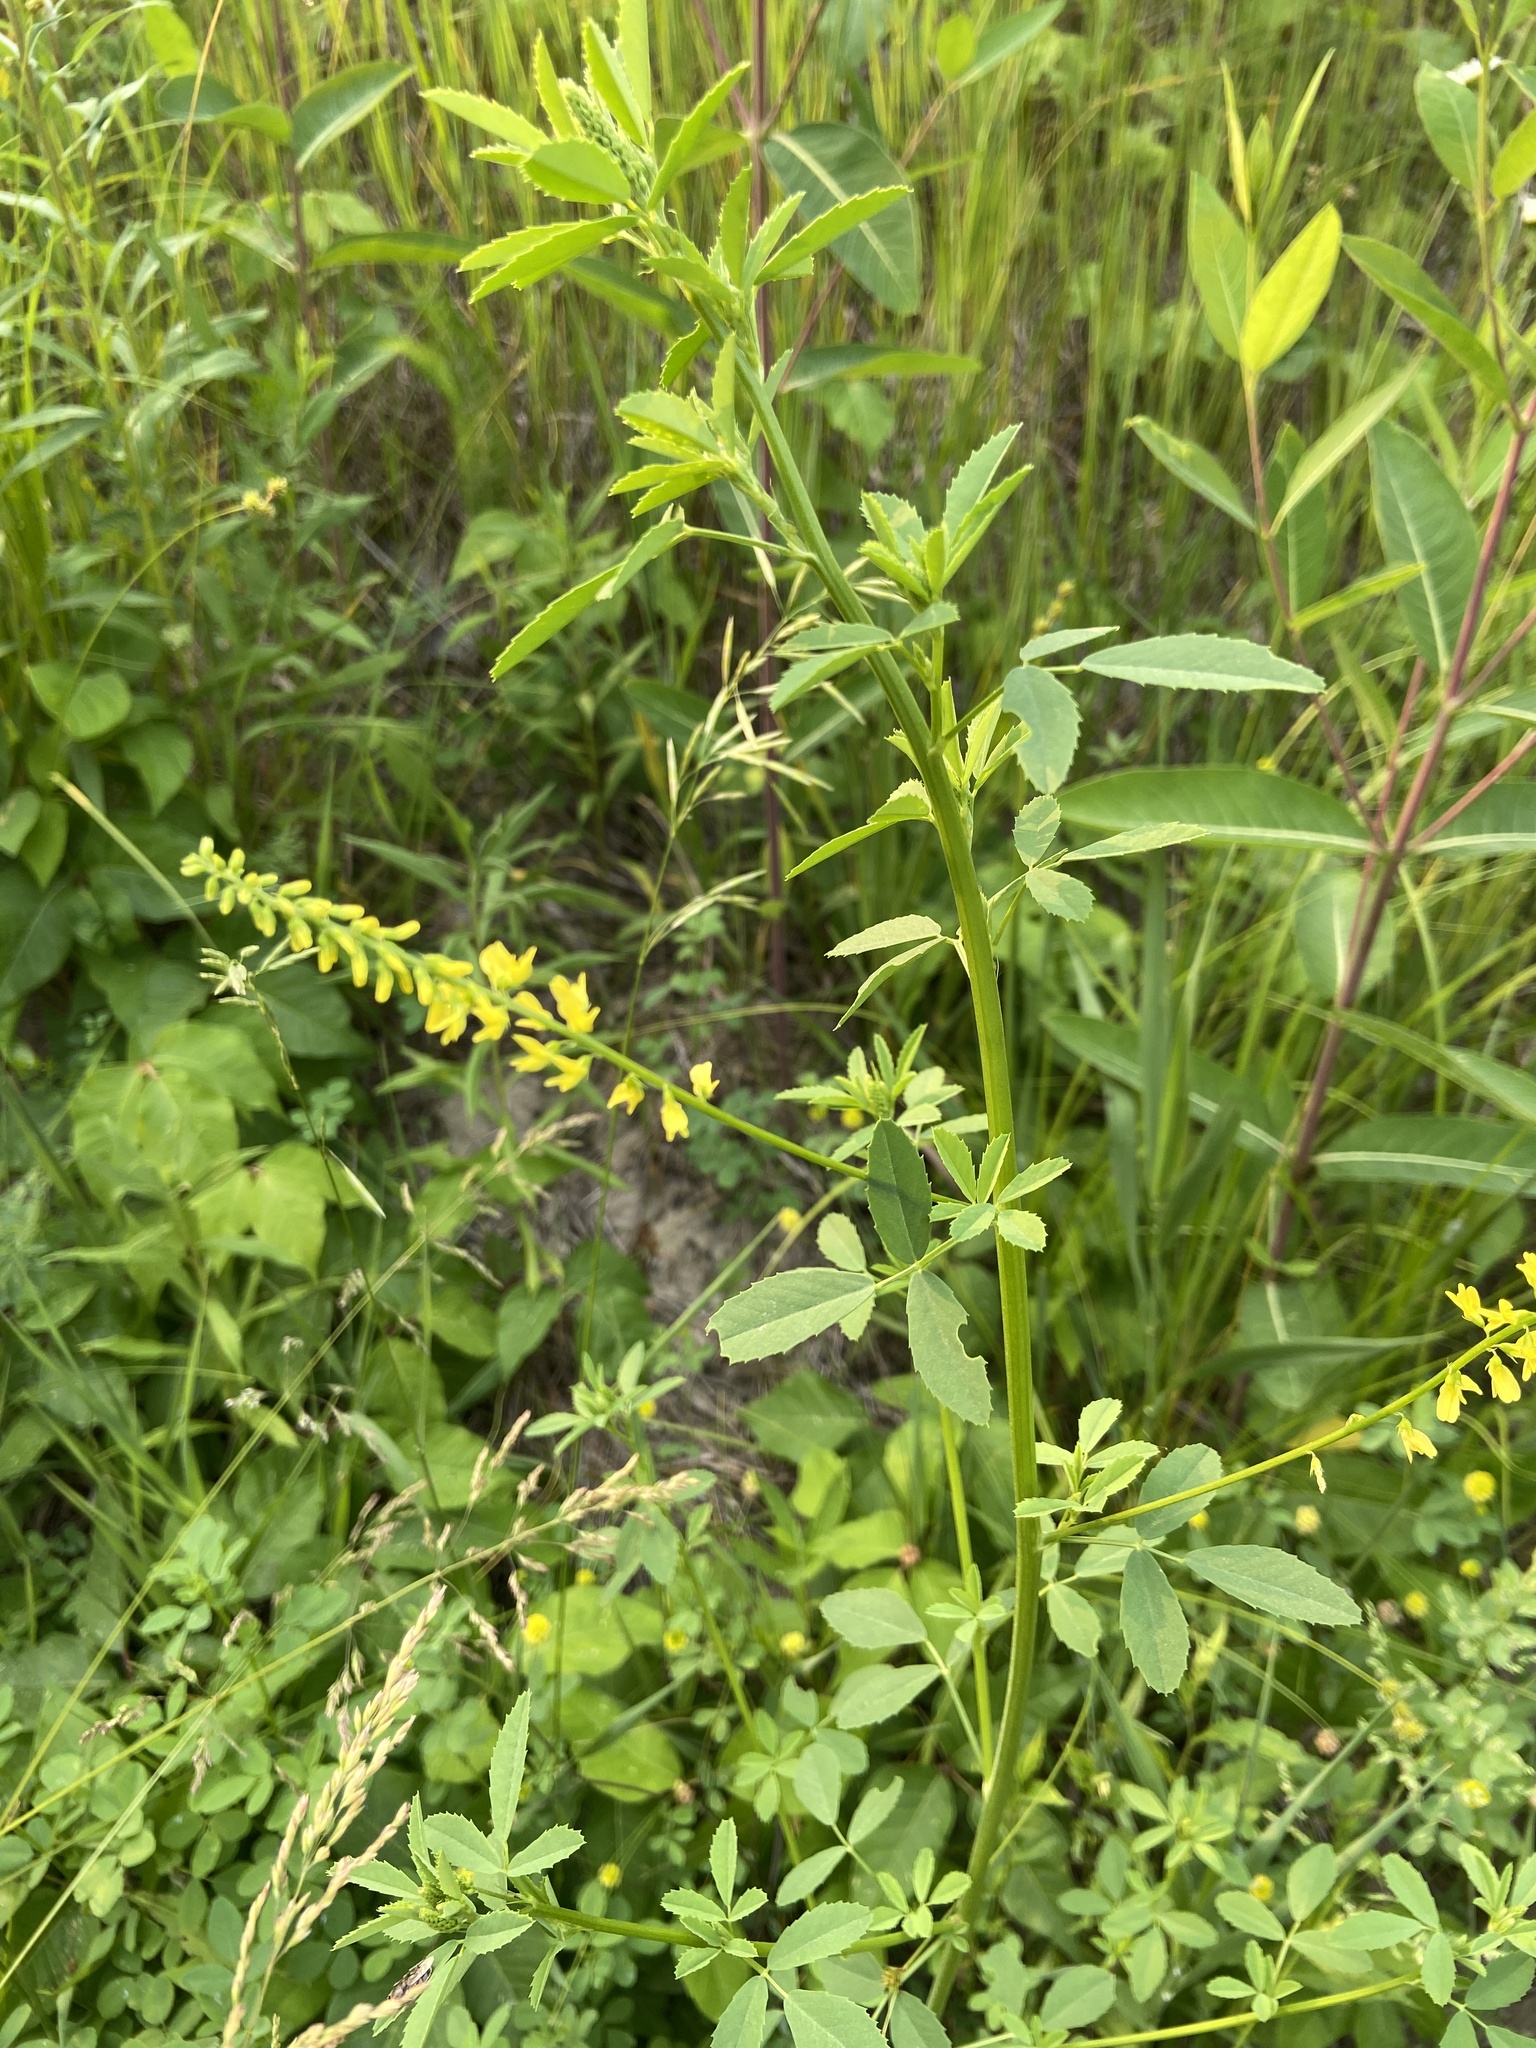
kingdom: Plantae
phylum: Tracheophyta
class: Magnoliopsida
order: Fabales
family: Fabaceae
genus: Melilotus
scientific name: Melilotus officinalis
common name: Sweetclover
